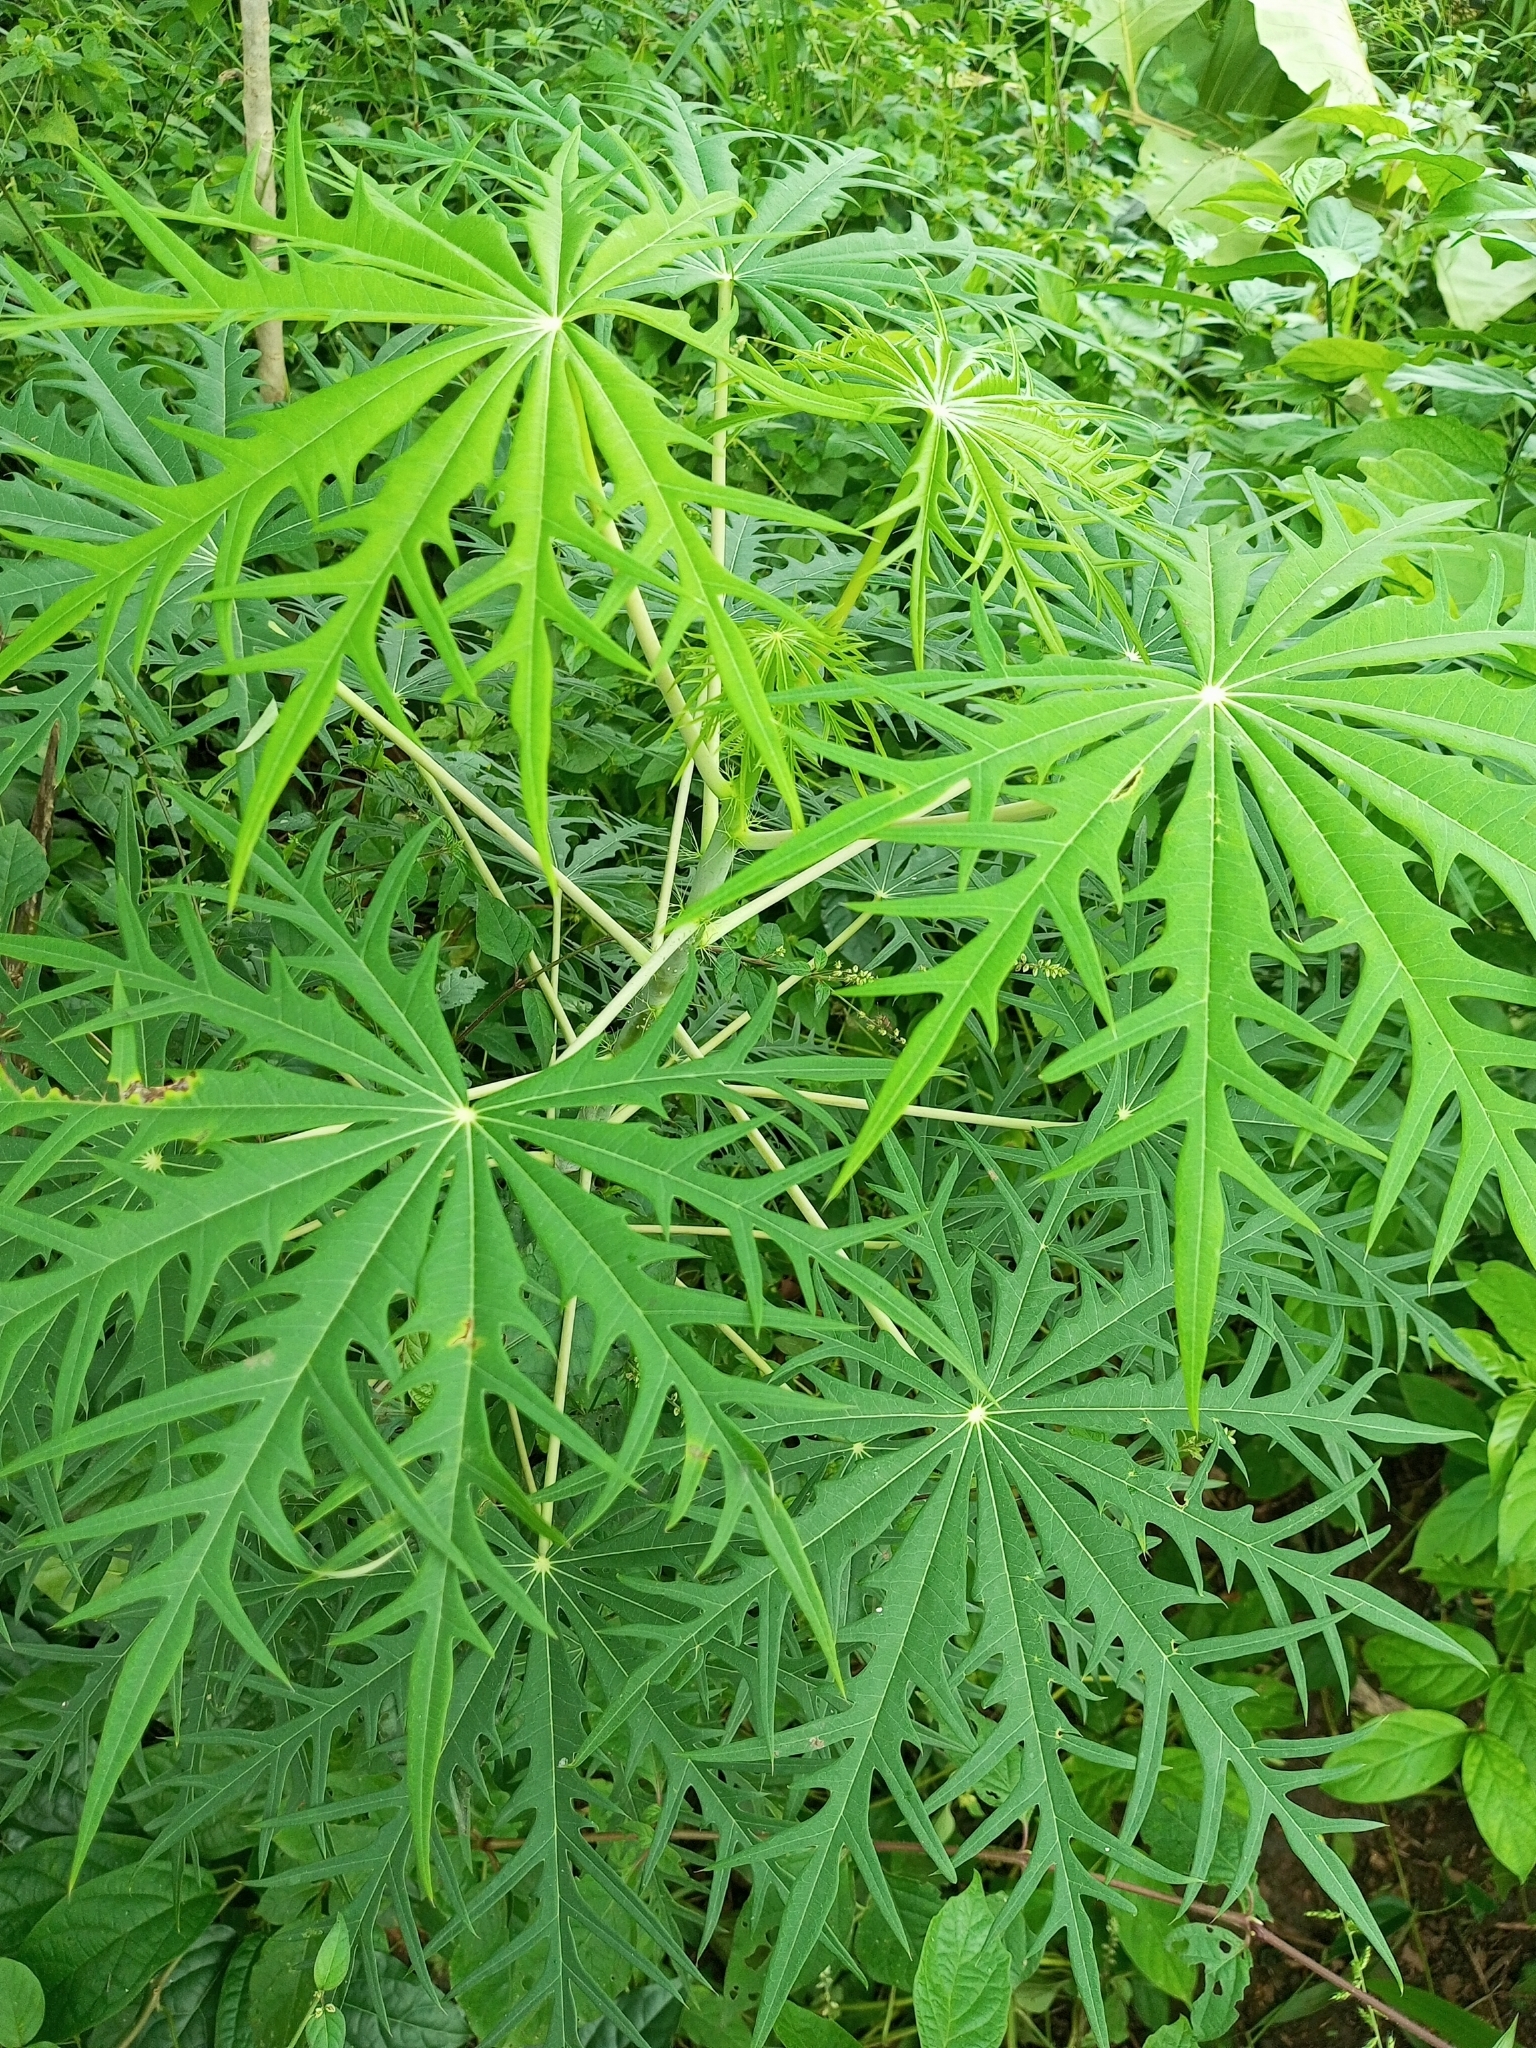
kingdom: Plantae
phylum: Tracheophyta
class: Magnoliopsida
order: Malpighiales
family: Euphorbiaceae
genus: Jatropha
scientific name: Jatropha multifida
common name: Coralbush
